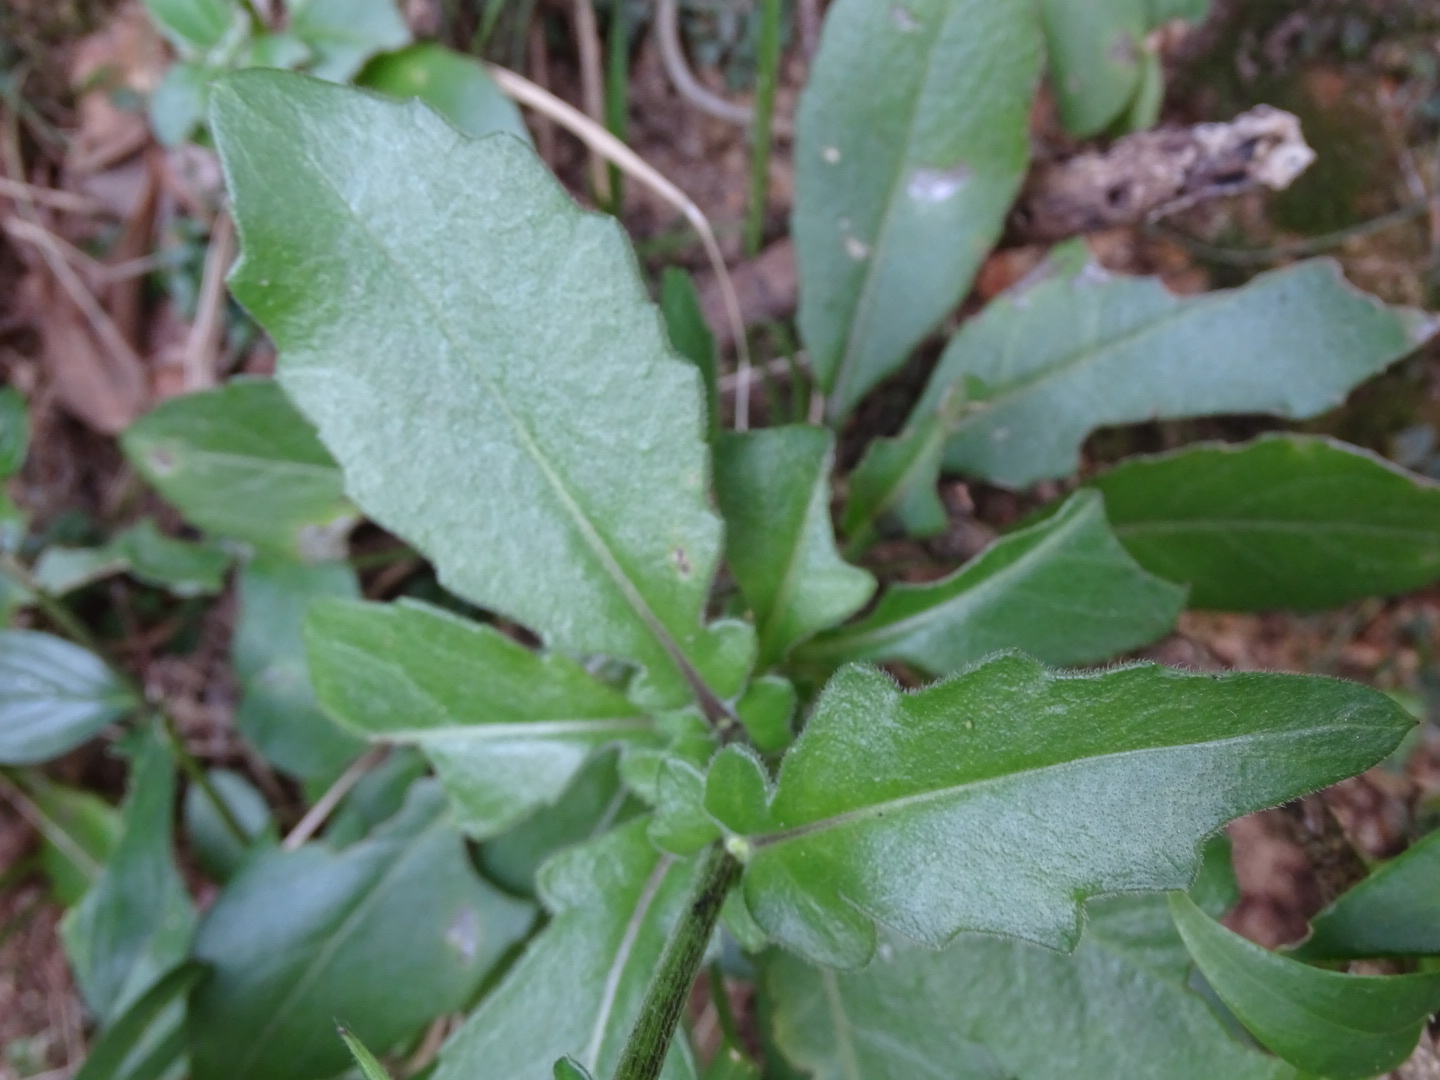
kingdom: Plantae
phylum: Tracheophyta
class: Magnoliopsida
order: Asterales
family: Asteraceae
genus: Gynura
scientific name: Gynura divaricata
